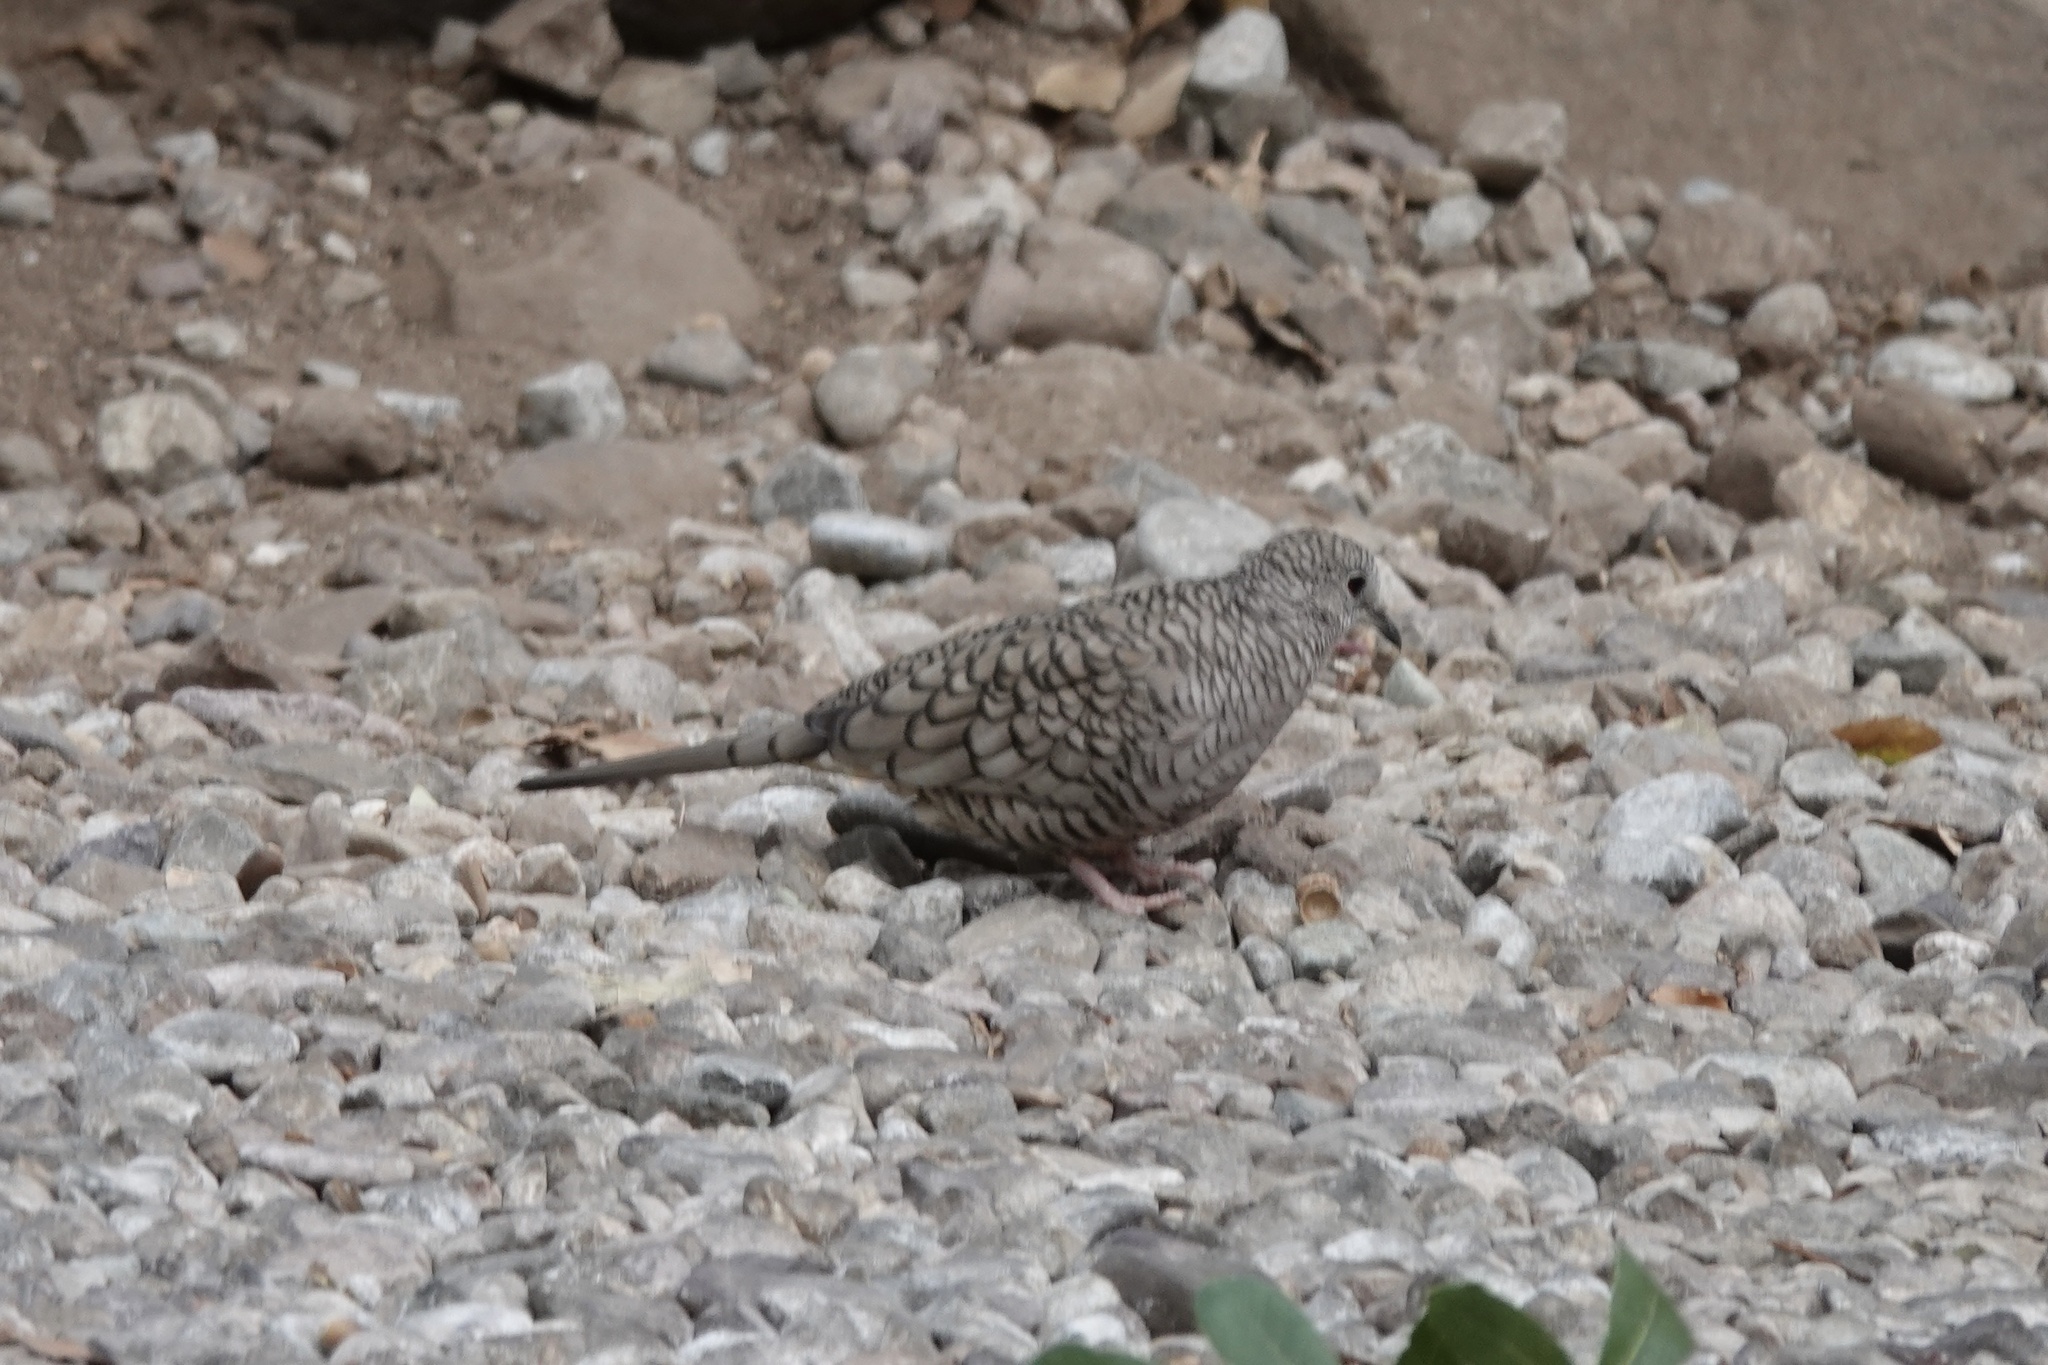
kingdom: Animalia
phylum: Chordata
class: Aves
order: Columbiformes
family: Columbidae
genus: Columbina
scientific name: Columbina inca
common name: Inca dove
